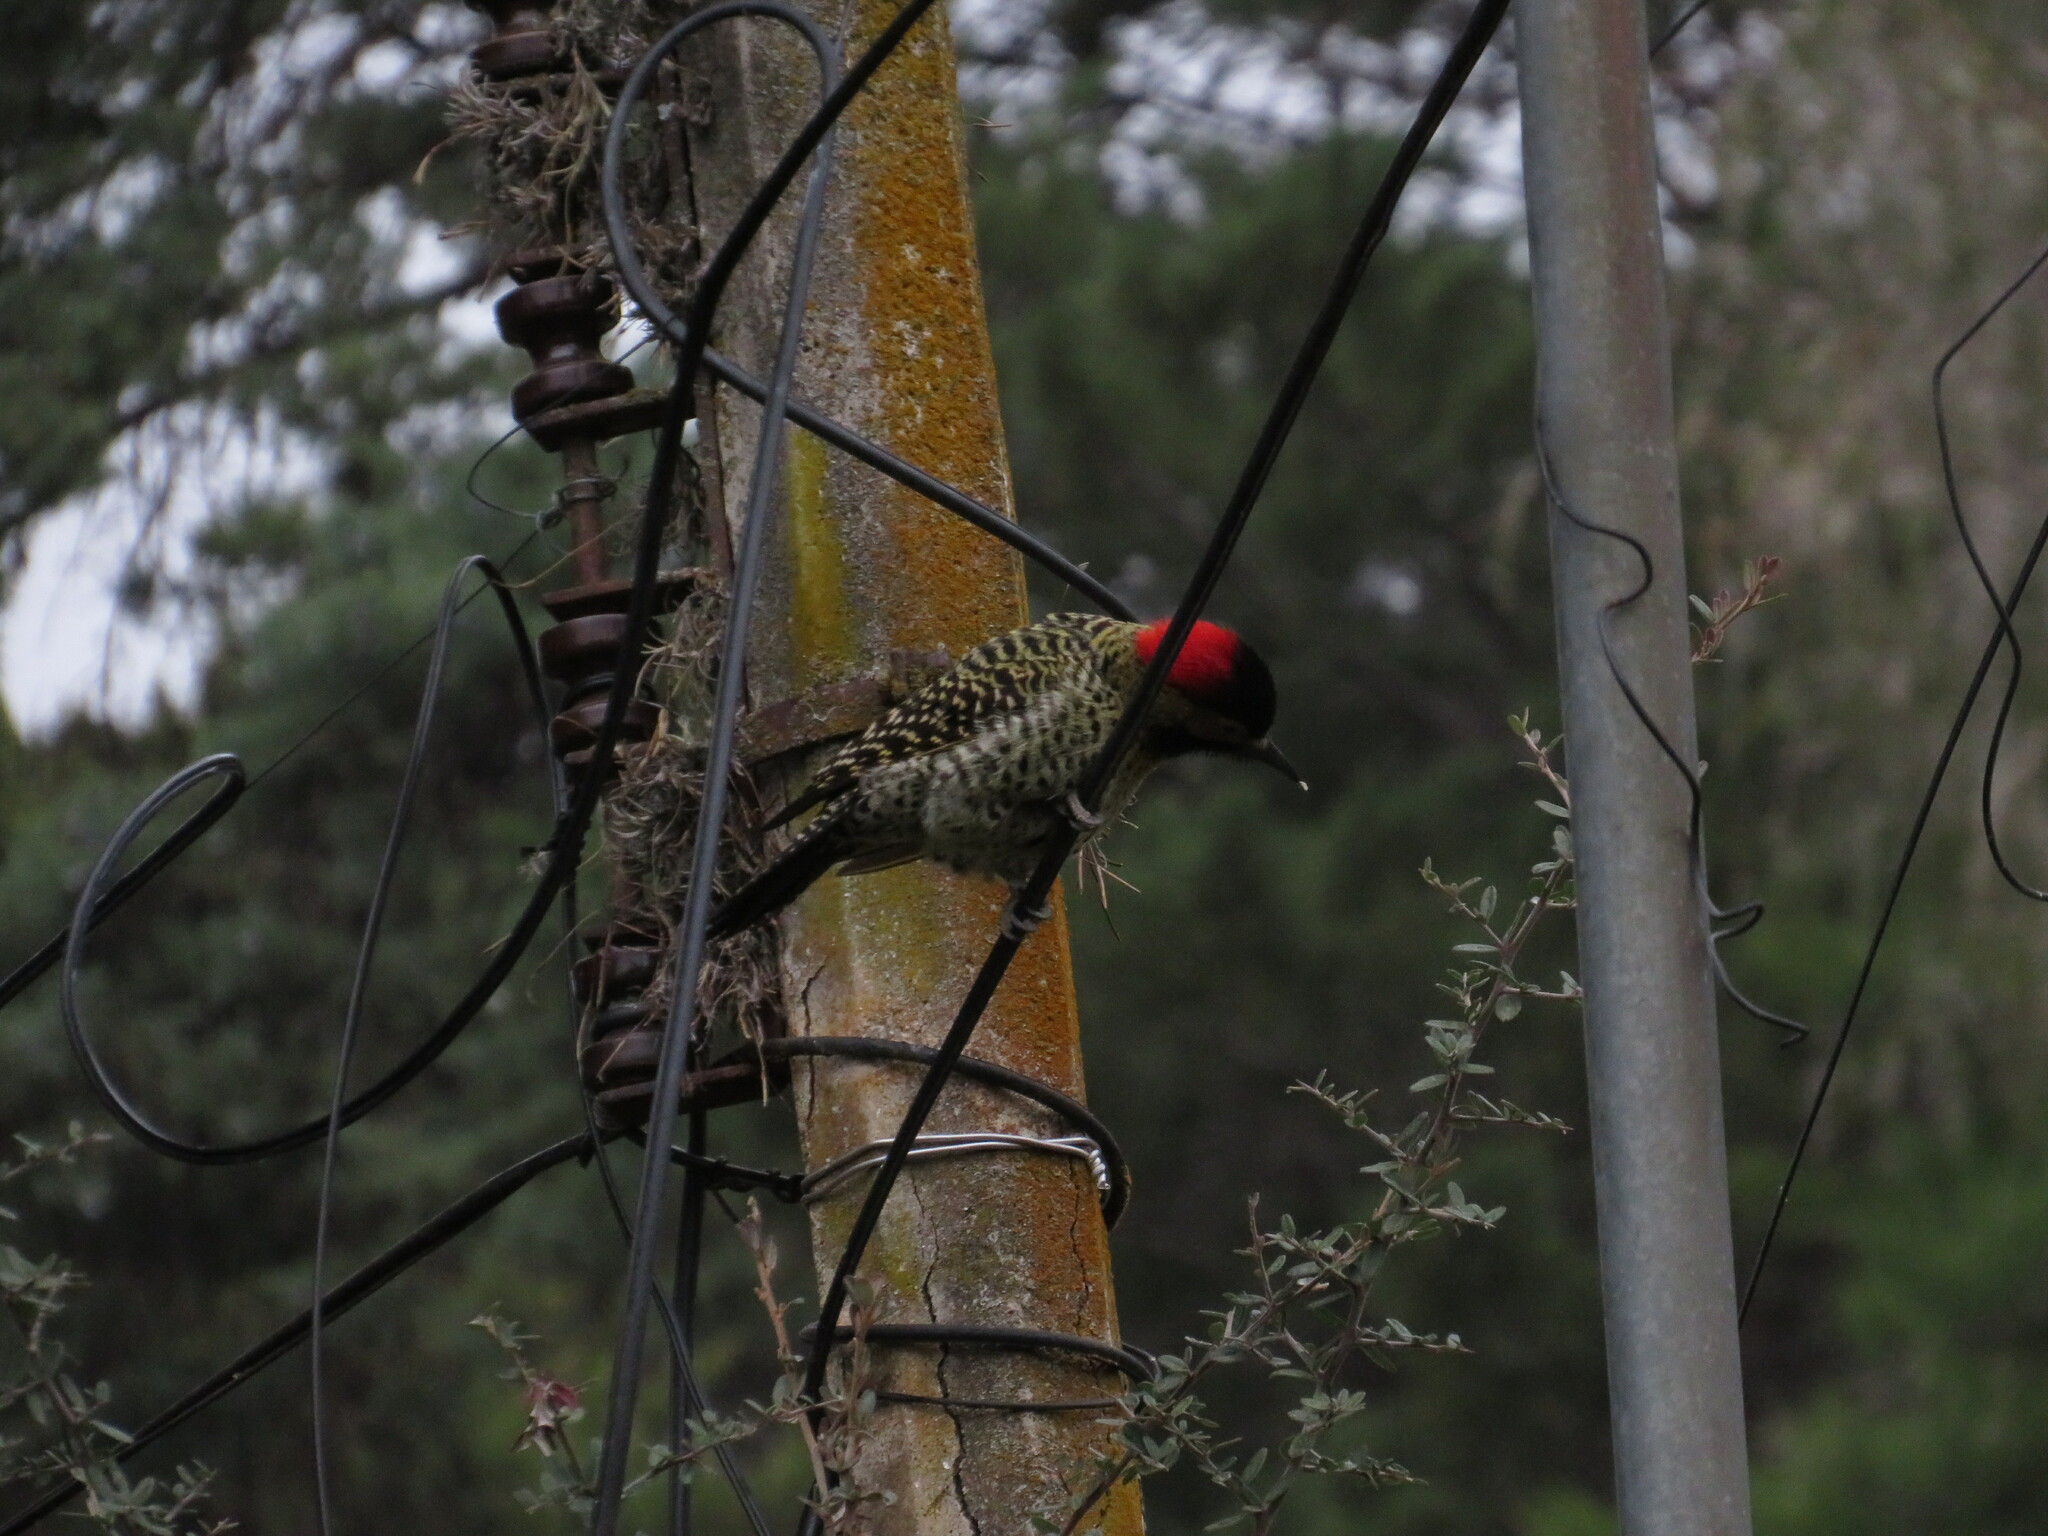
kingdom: Animalia
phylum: Chordata
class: Aves
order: Piciformes
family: Picidae
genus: Colaptes
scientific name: Colaptes melanochloros
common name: Green-barred woodpecker
